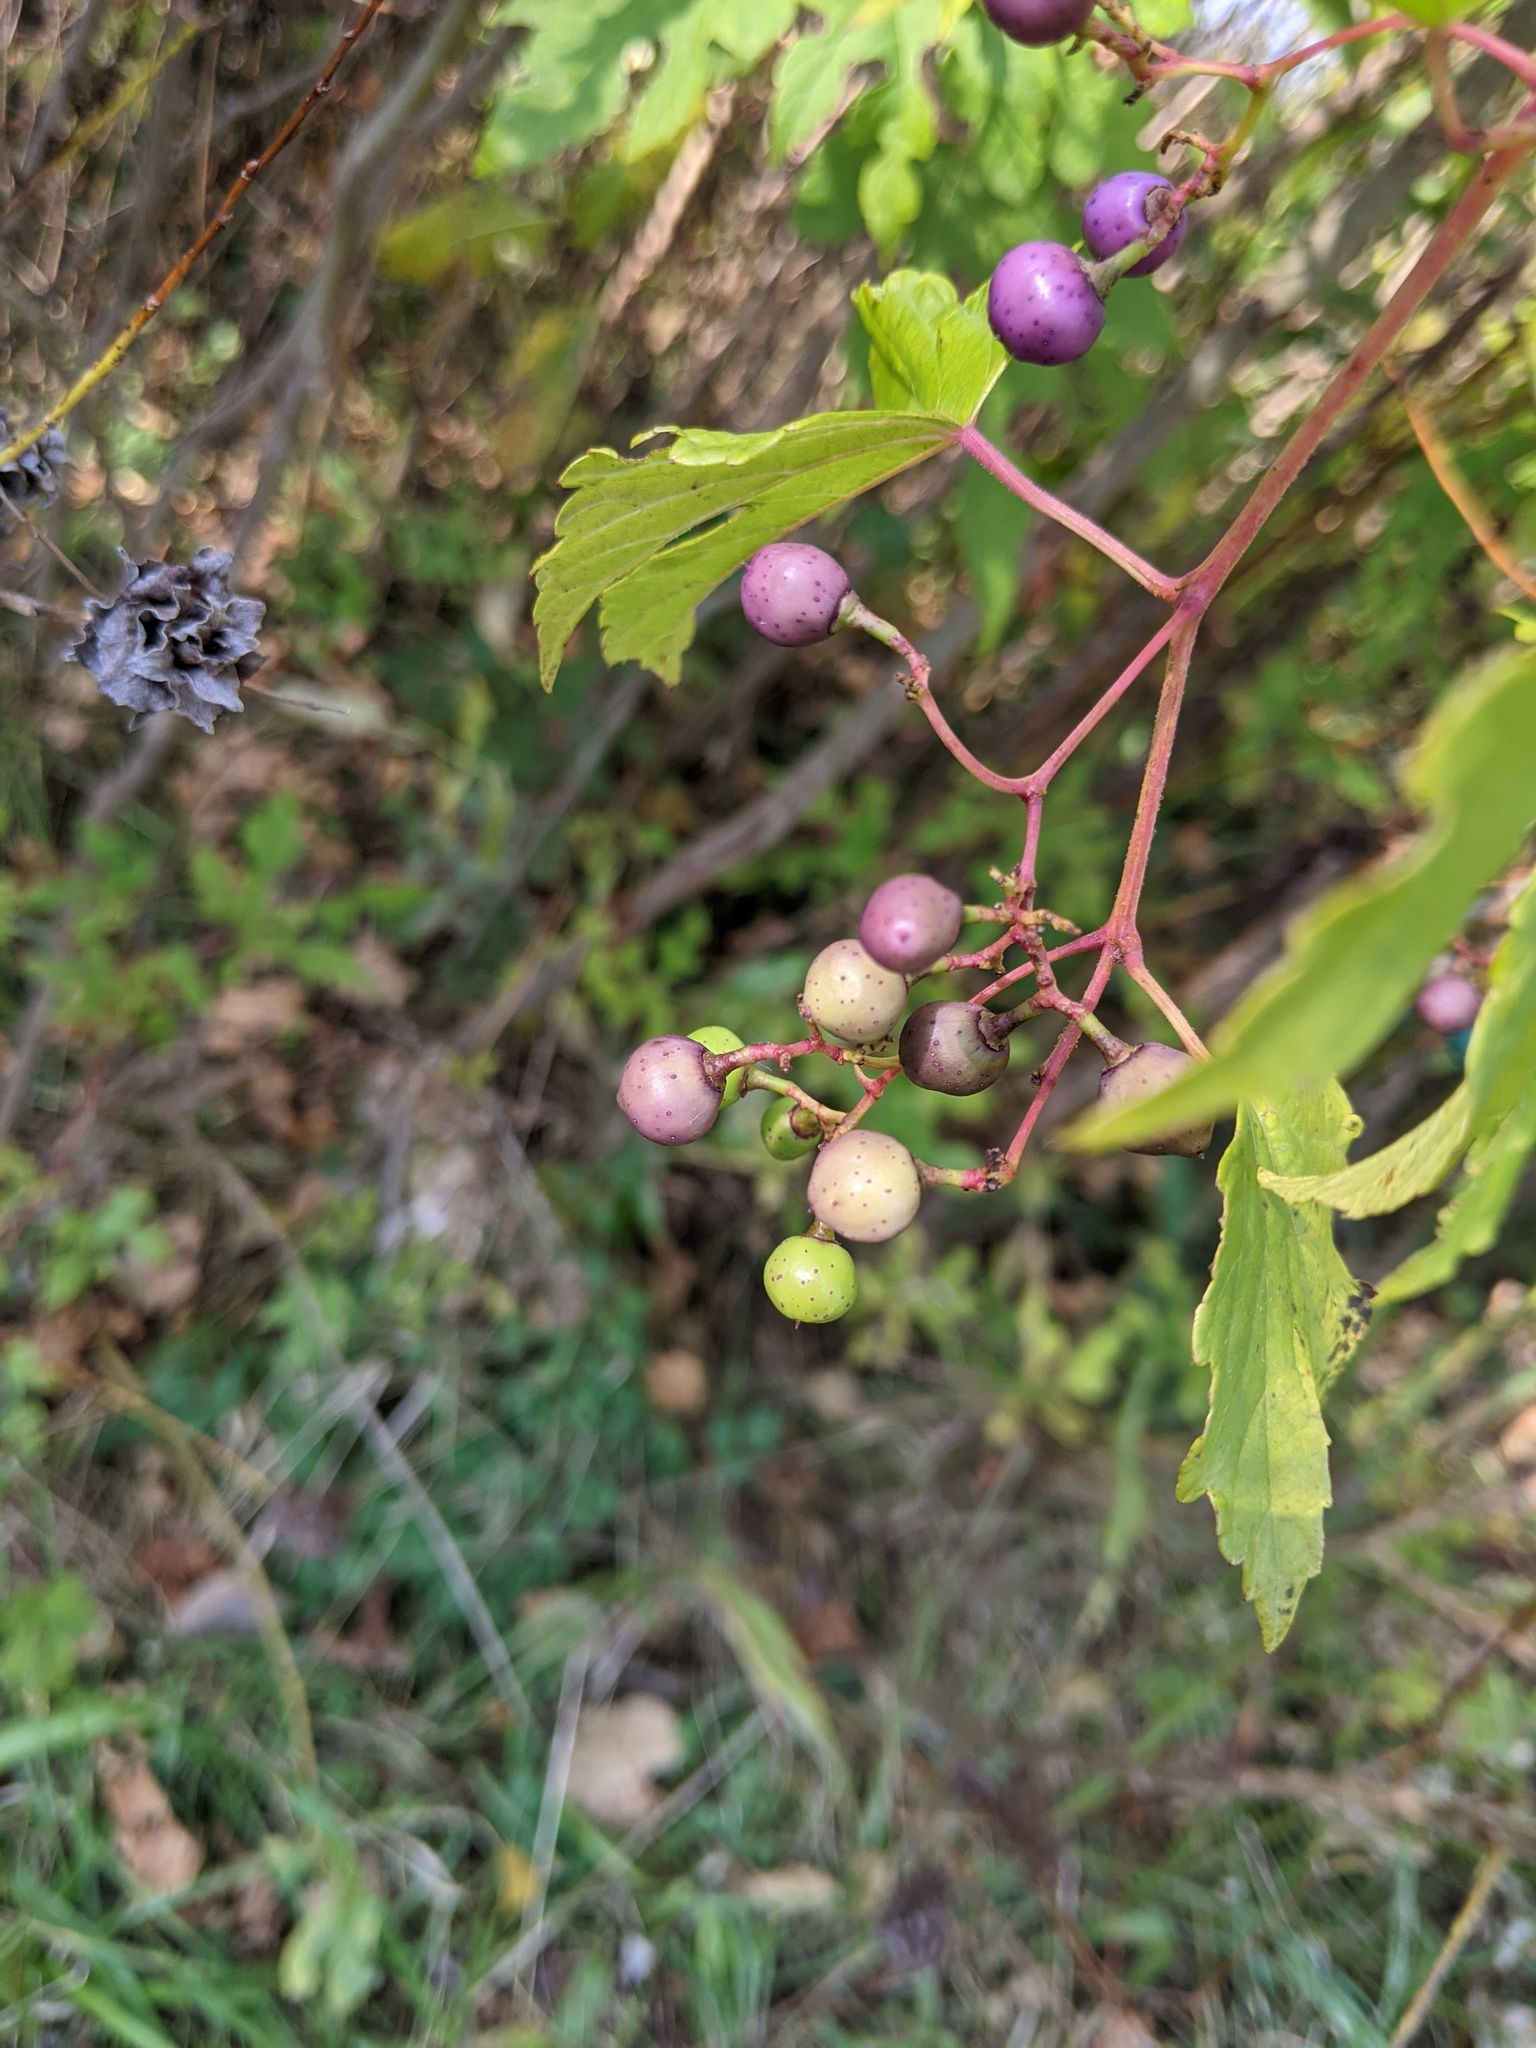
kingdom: Plantae
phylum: Tracheophyta
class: Magnoliopsida
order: Vitales
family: Vitaceae
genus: Ampelopsis
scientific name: Ampelopsis glandulosa
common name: Amur peppervine
